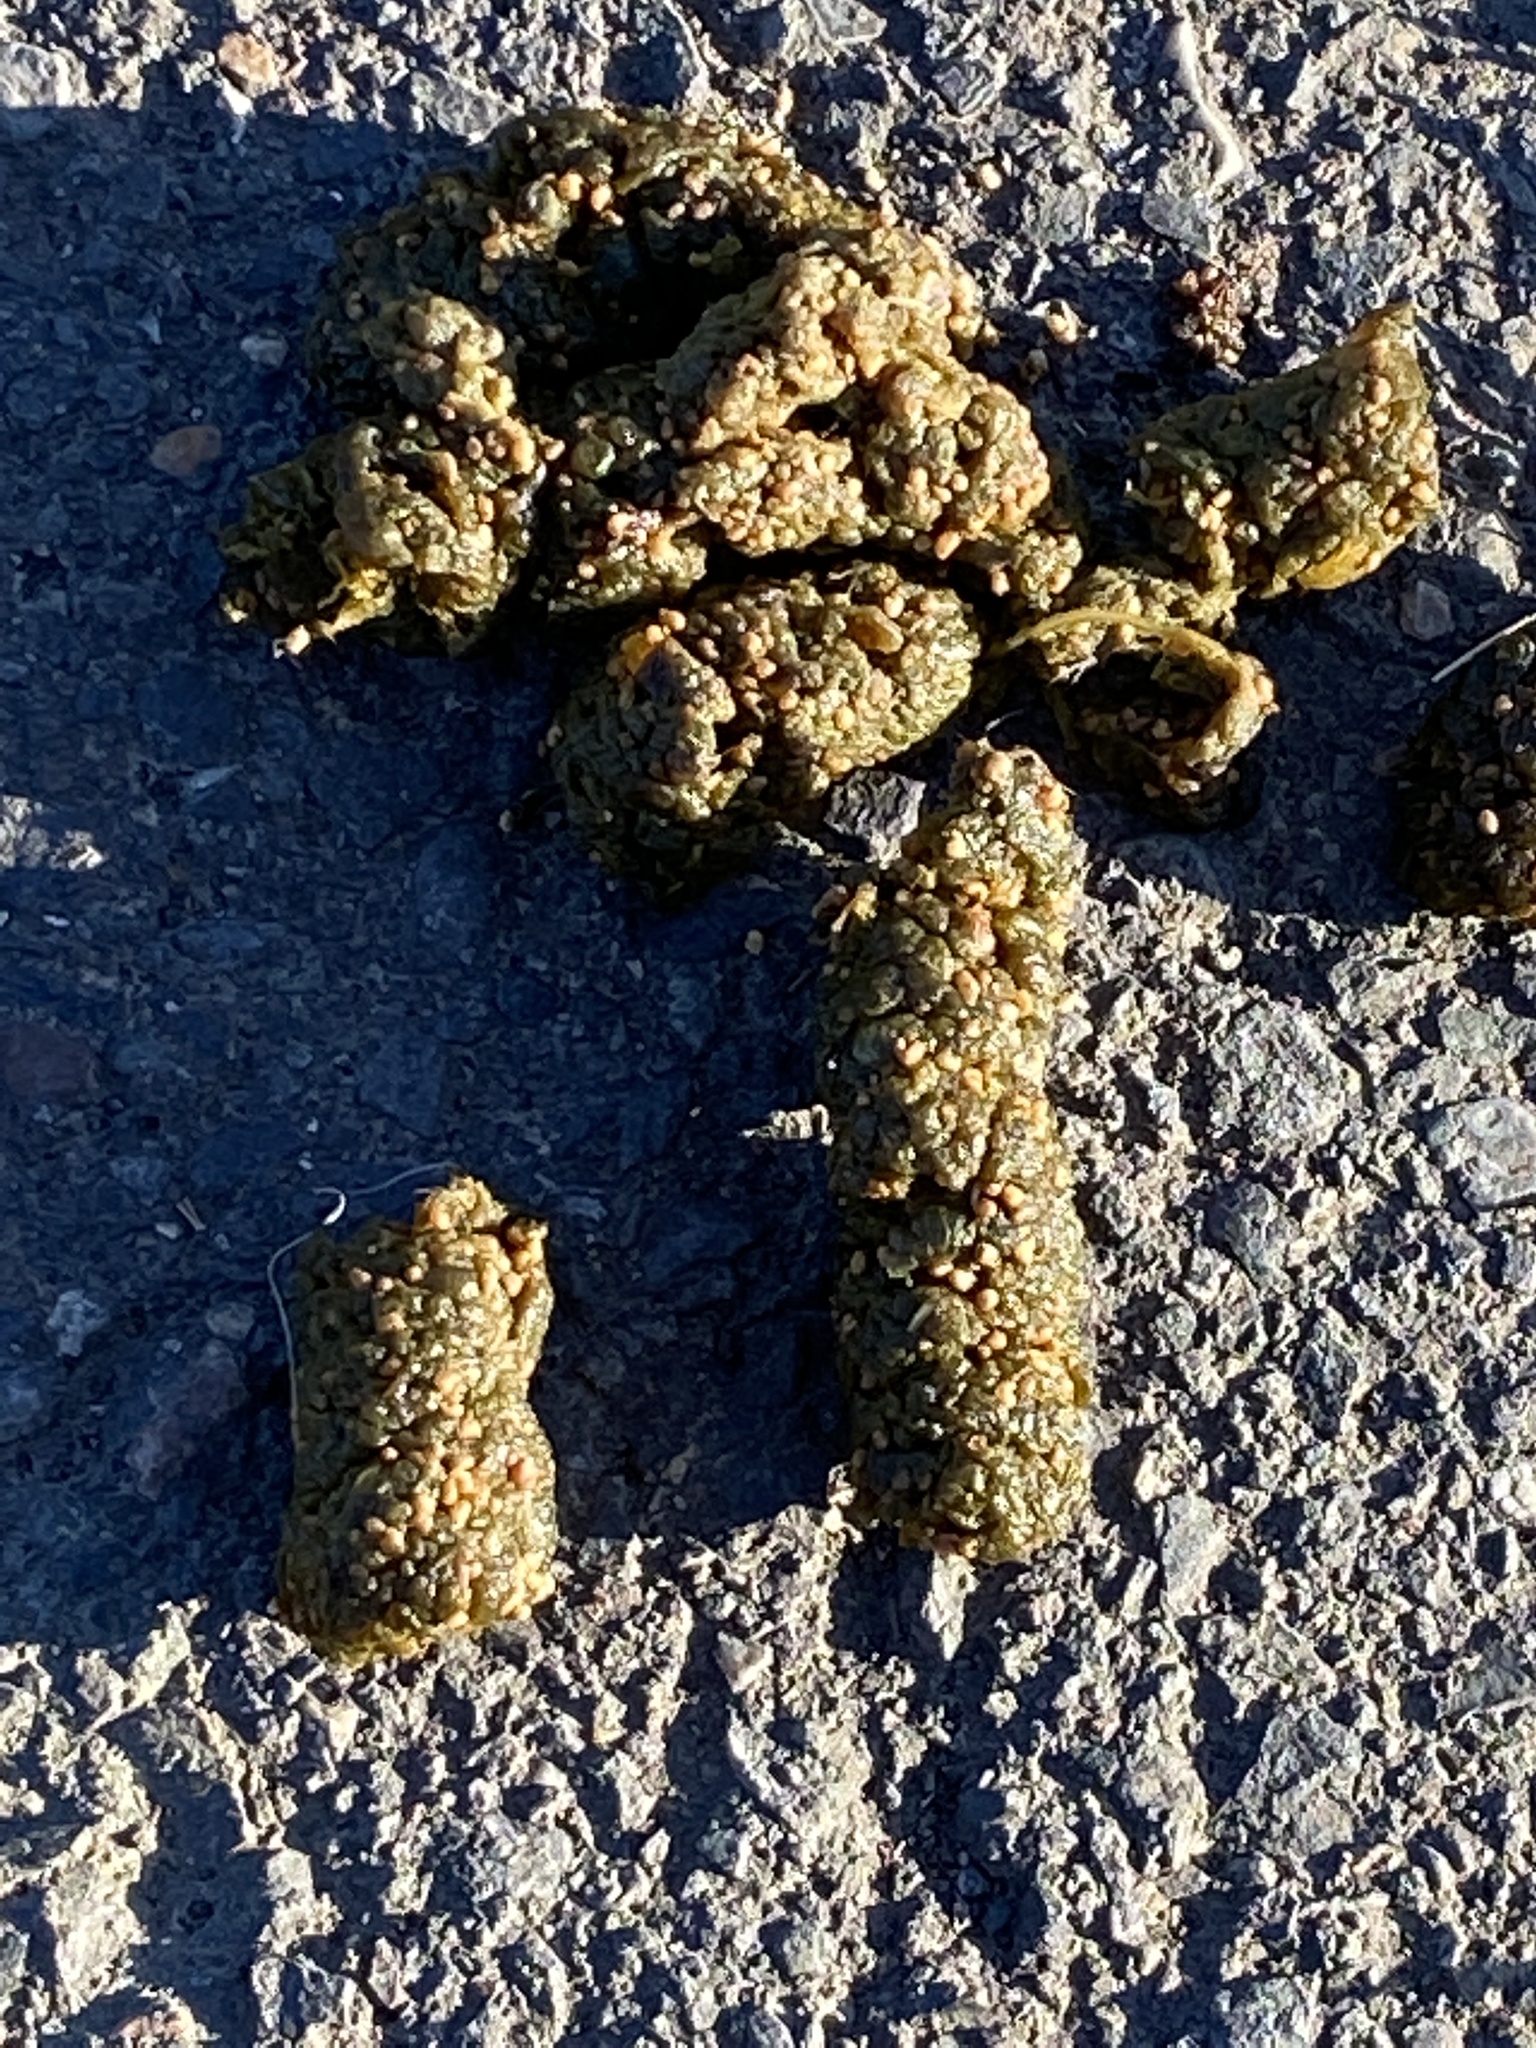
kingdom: Animalia
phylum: Chordata
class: Mammalia
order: Carnivora
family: Procyonidae
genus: Procyon
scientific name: Procyon lotor
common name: Raccoon
